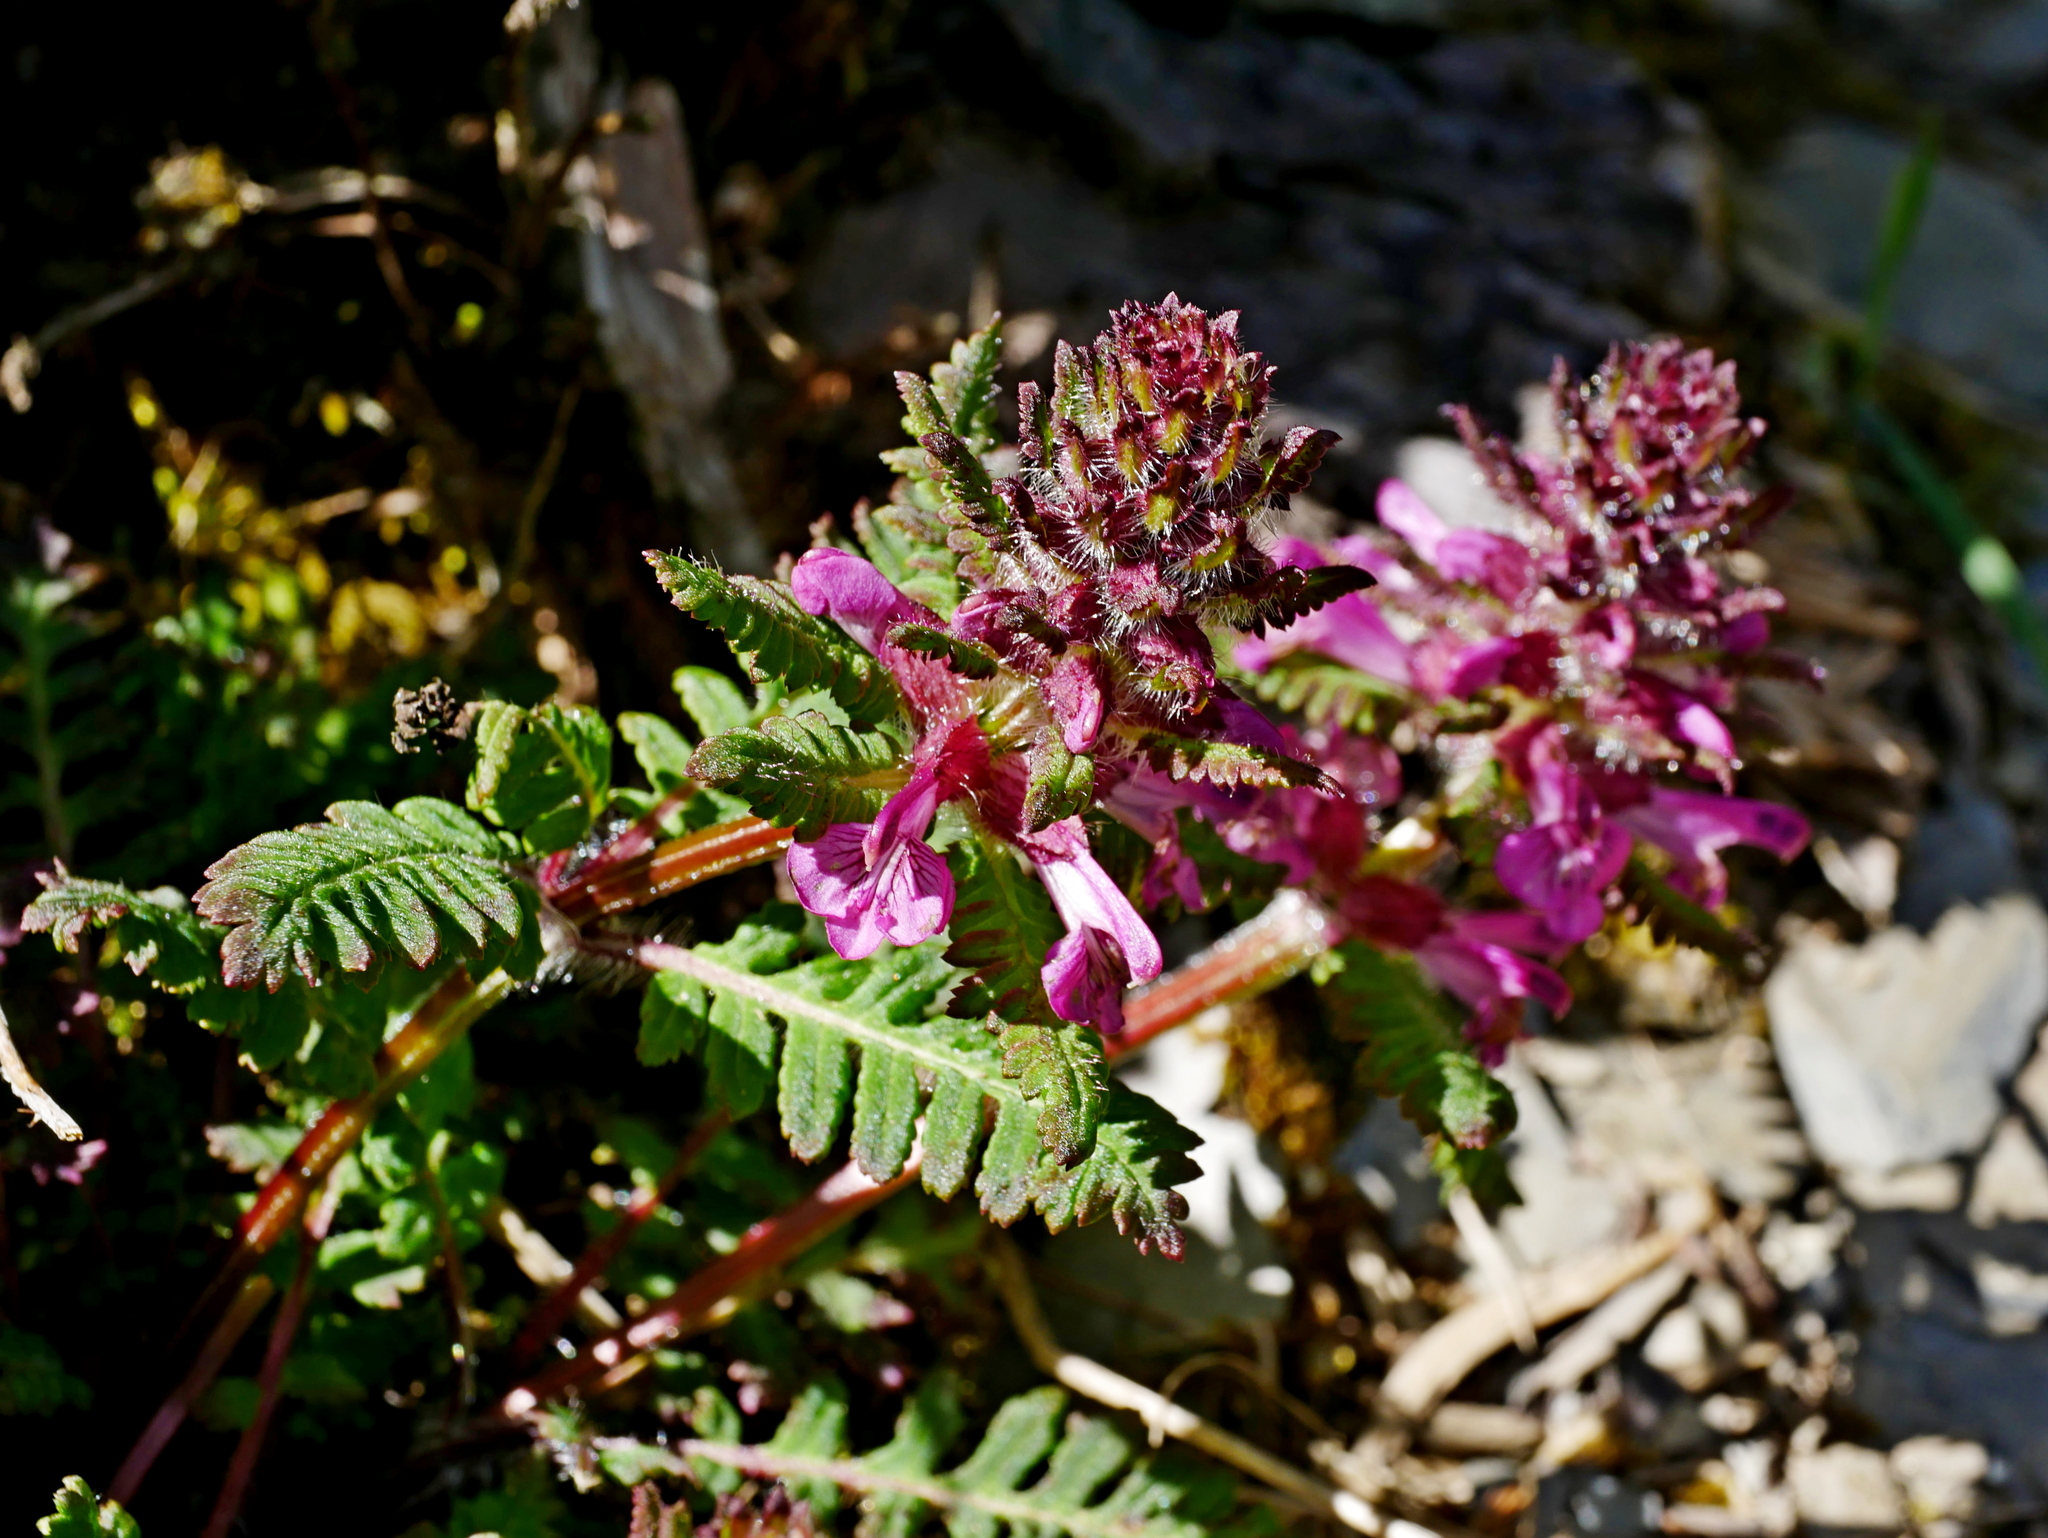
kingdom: Plantae
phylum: Tracheophyta
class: Magnoliopsida
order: Lamiales
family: Orobanchaceae
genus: Pedicularis
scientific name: Pedicularis refracta
